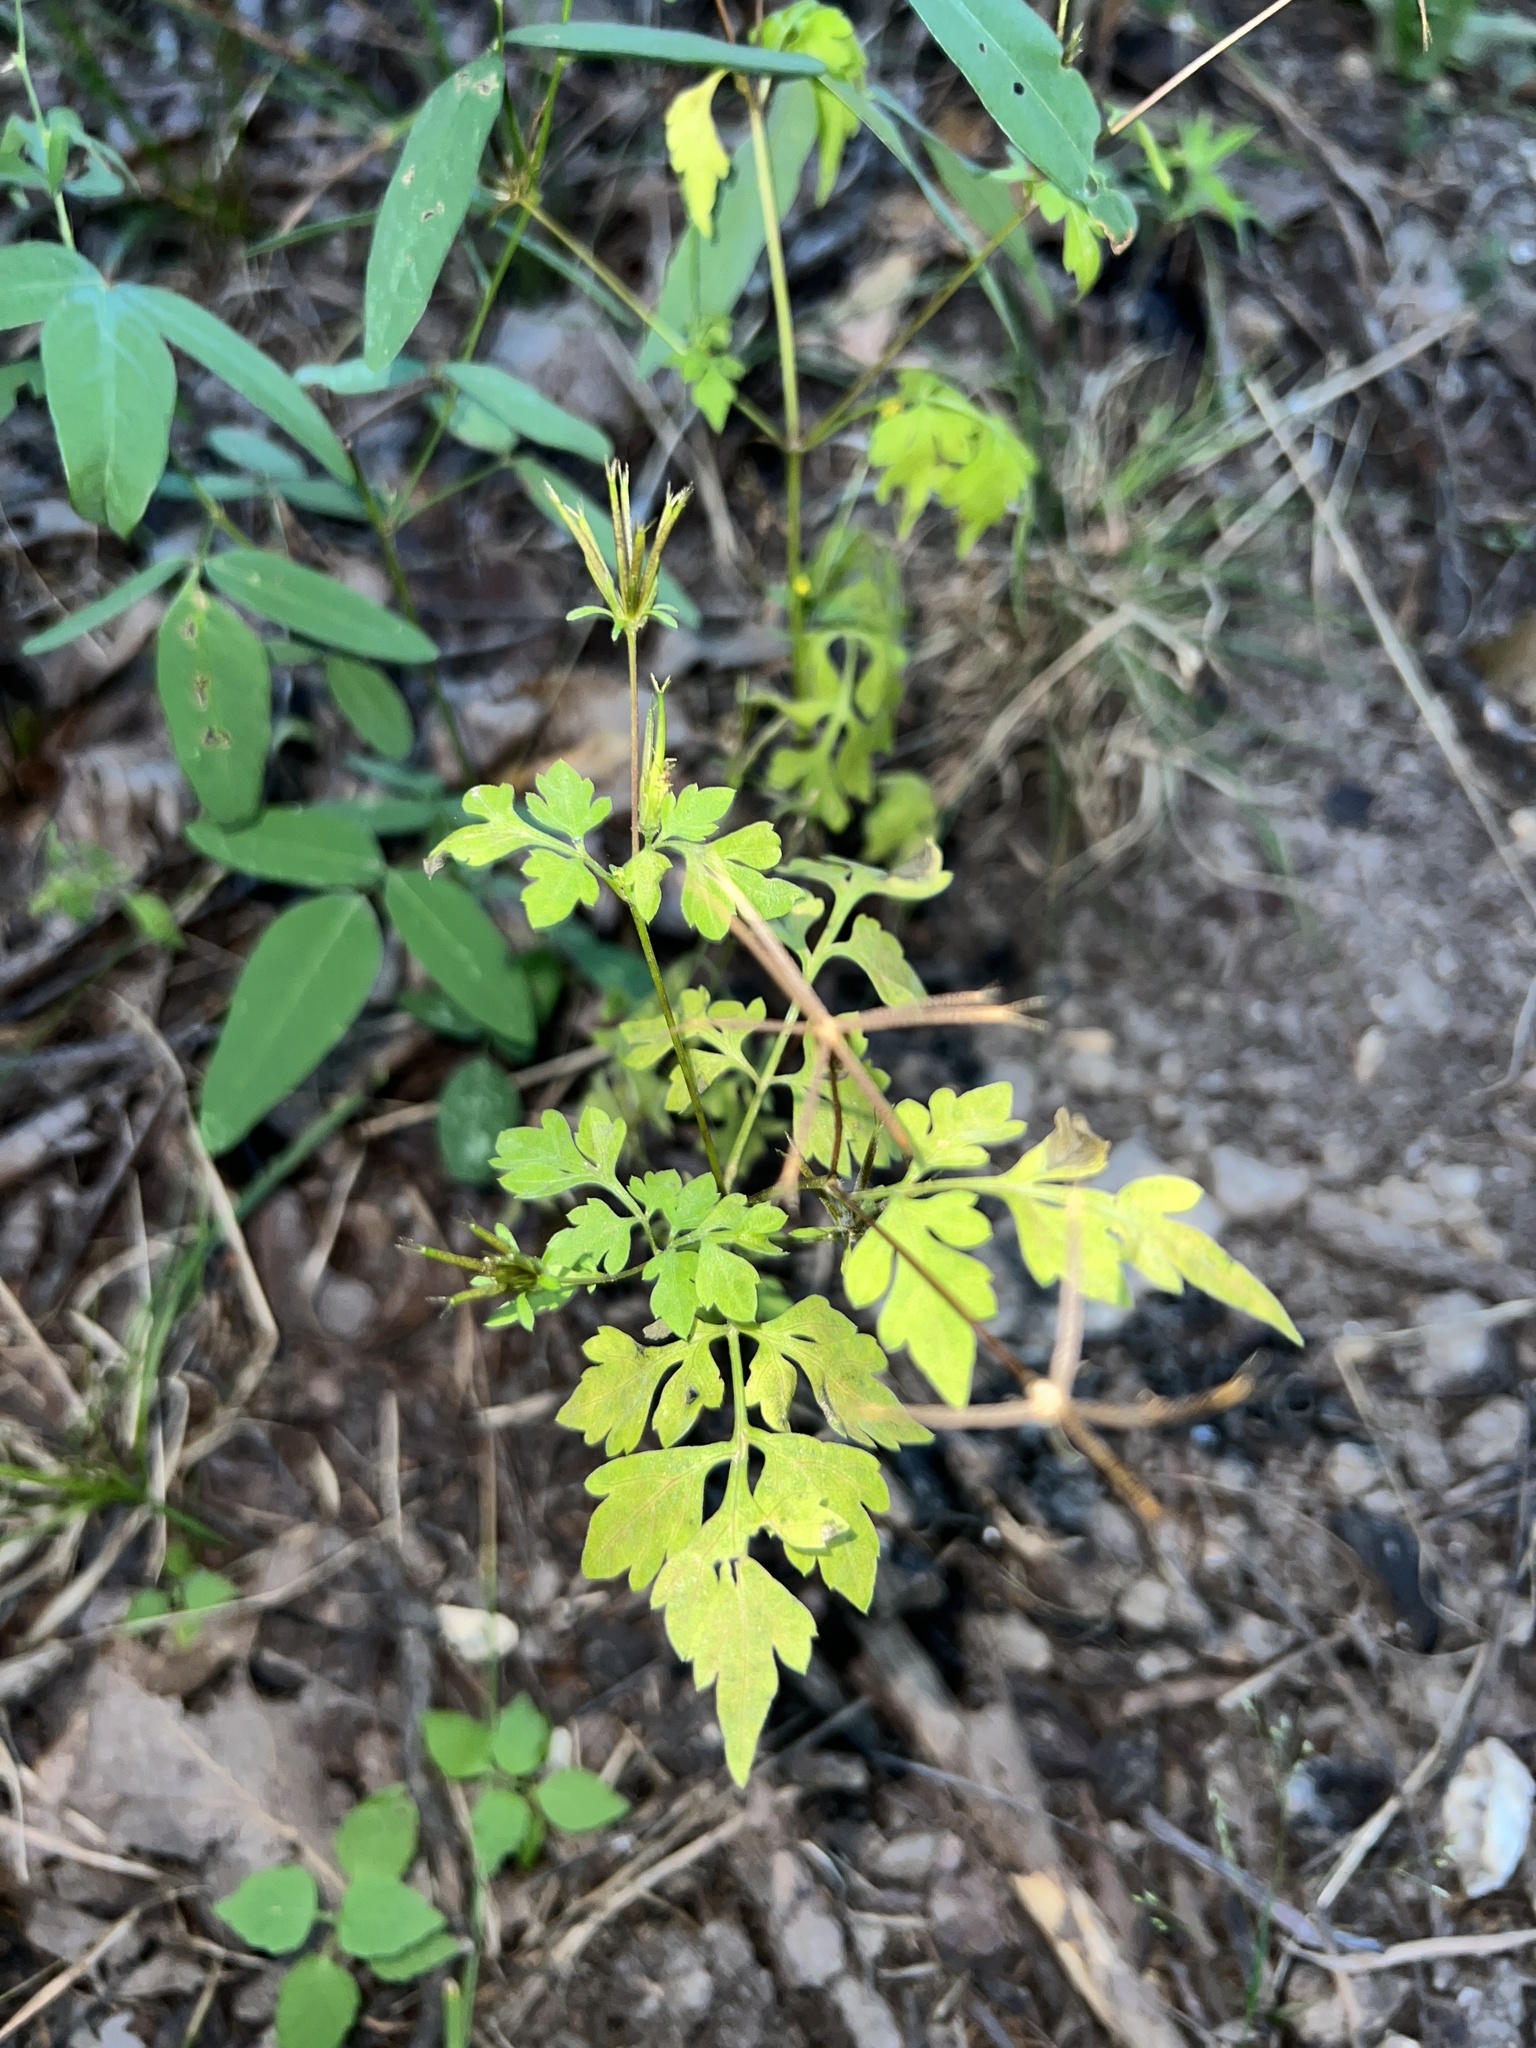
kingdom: Plantae
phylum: Tracheophyta
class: Magnoliopsida
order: Asterales
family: Asteraceae
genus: Bidens
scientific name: Bidens bipinnata
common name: Spanish-needles
